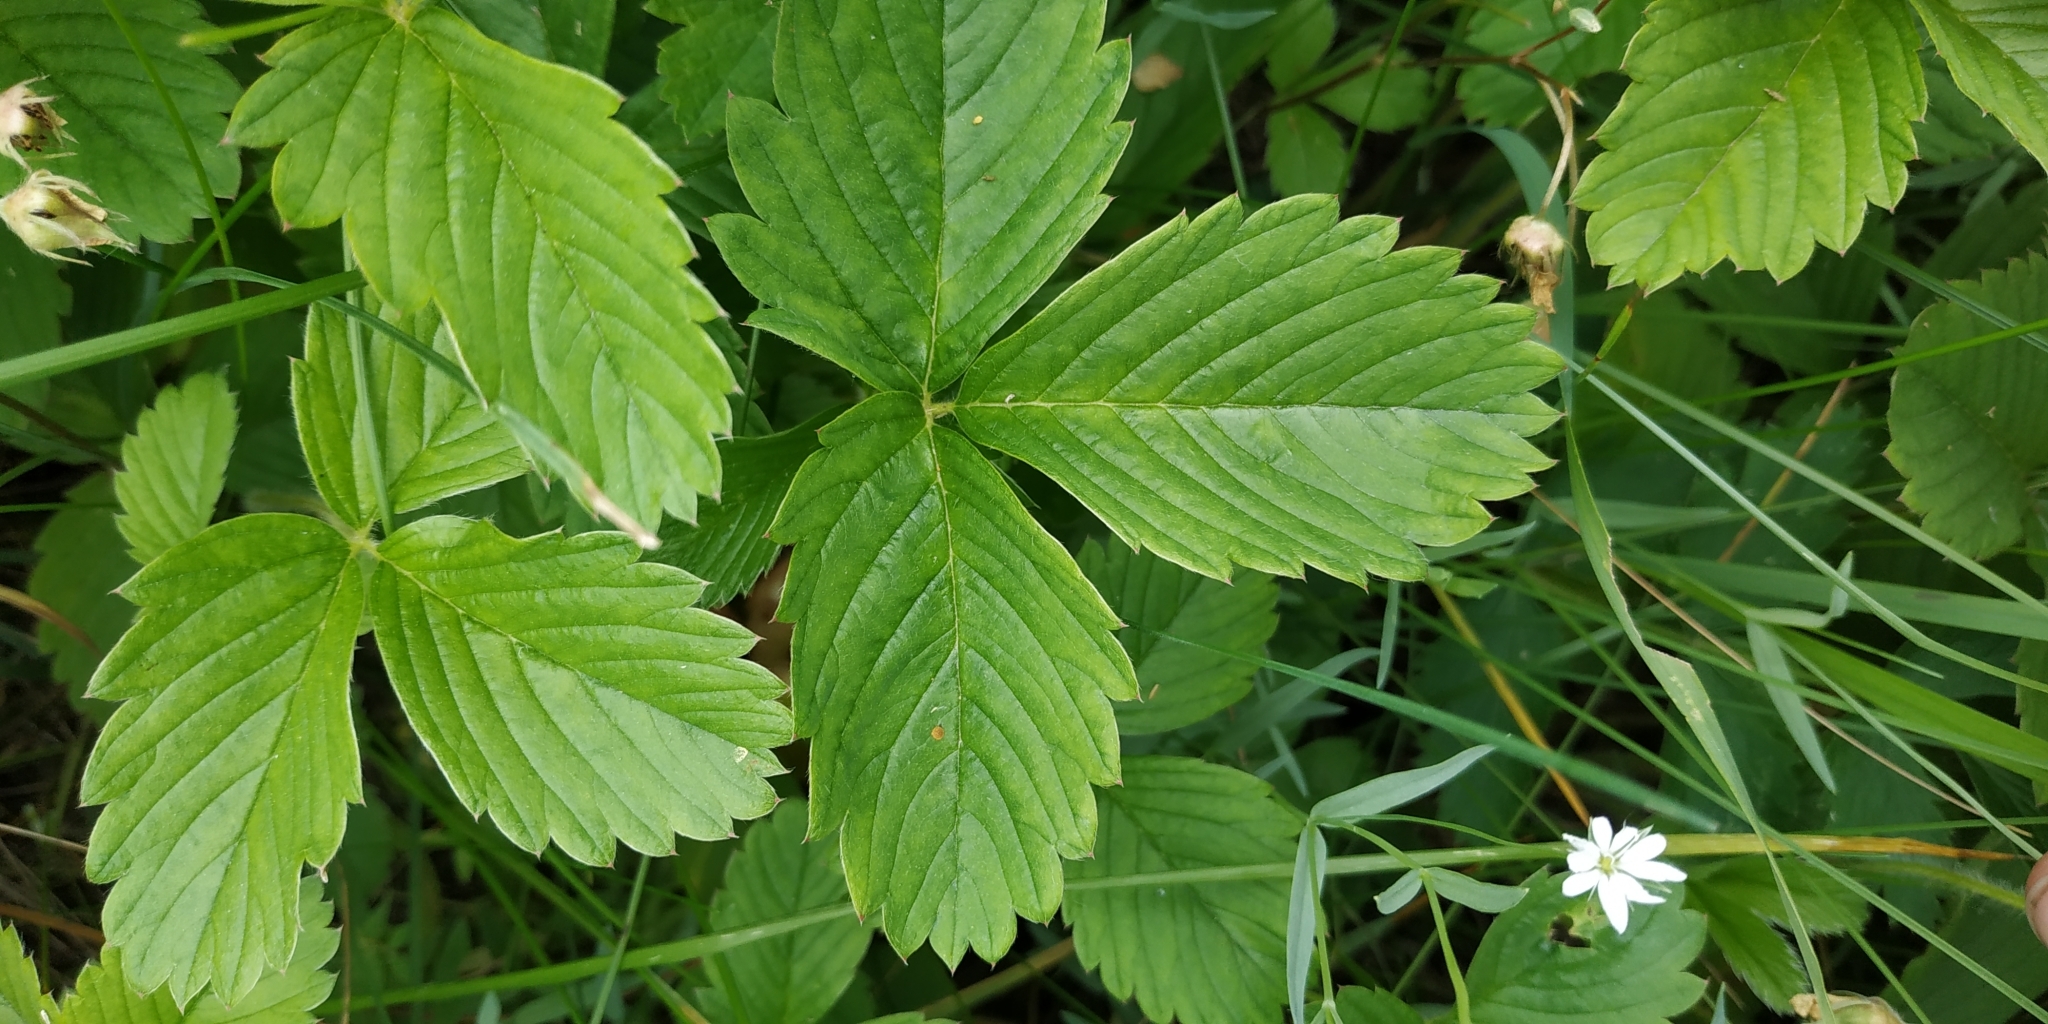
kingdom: Plantae
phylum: Tracheophyta
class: Magnoliopsida
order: Rosales
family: Rosaceae
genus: Fragaria
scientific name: Fragaria viridis
